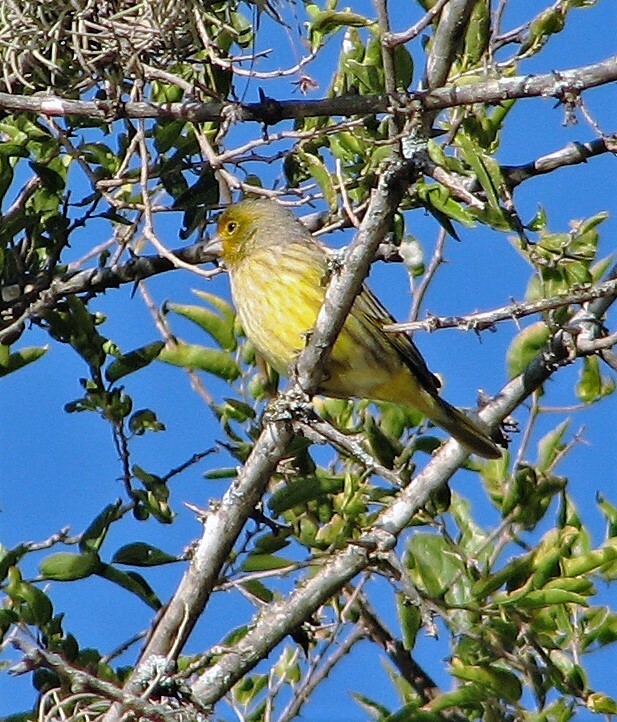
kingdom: Animalia
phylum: Chordata
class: Aves
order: Passeriformes
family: Thraupidae
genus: Sicalis
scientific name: Sicalis flaveola
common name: Saffron finch
